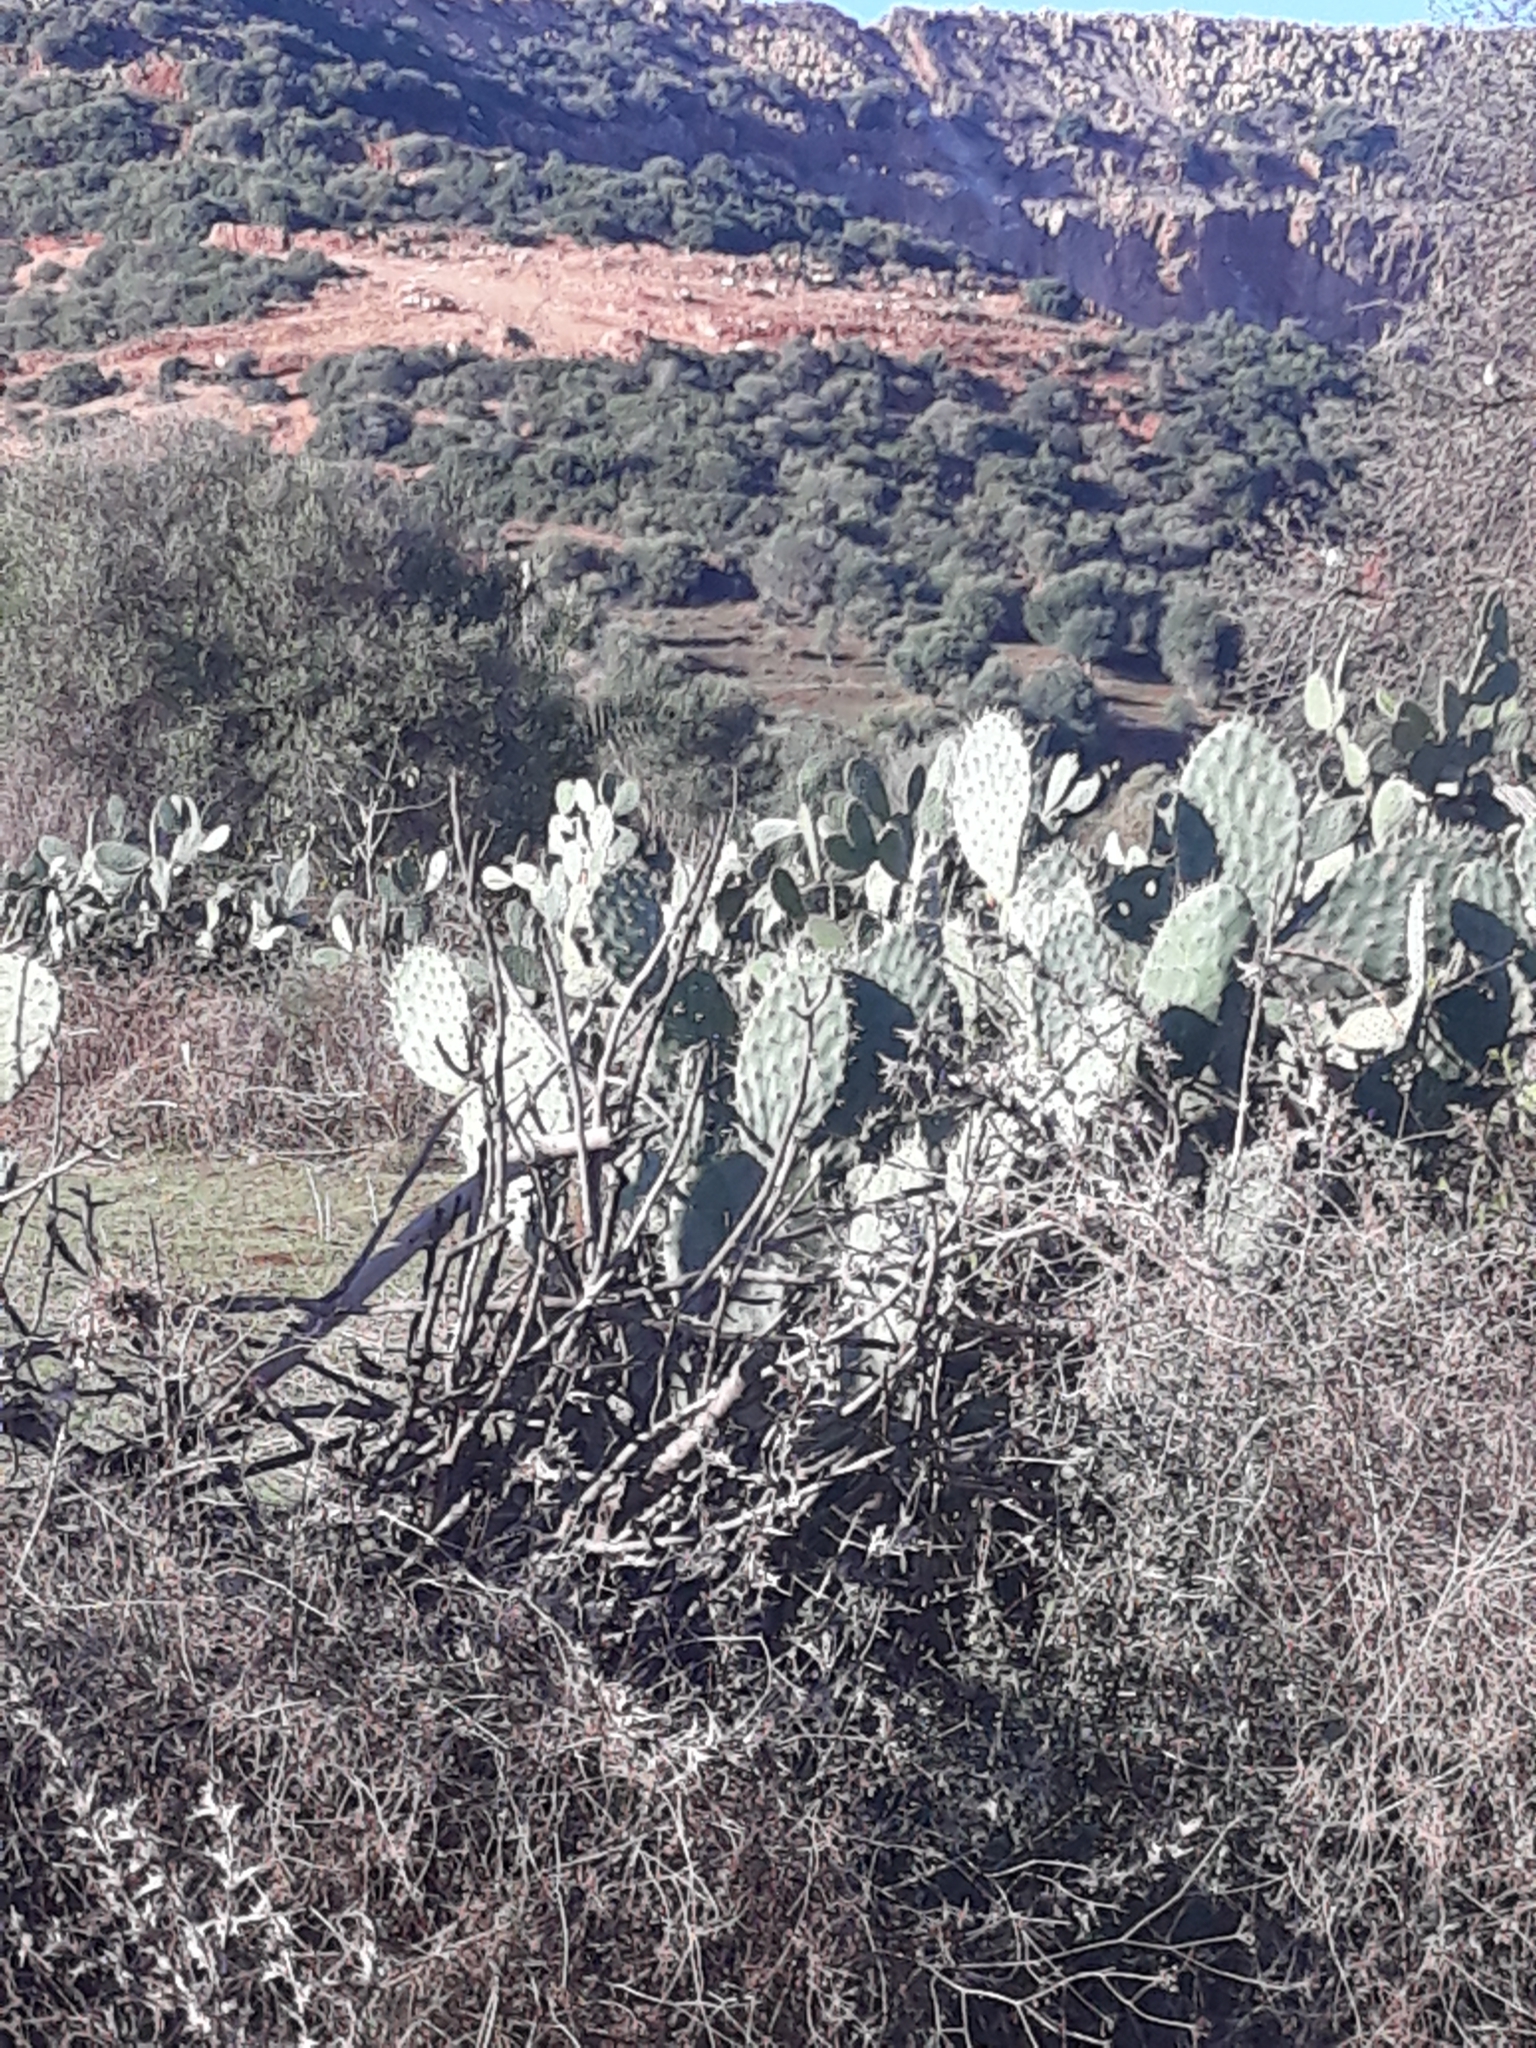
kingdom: Plantae
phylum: Tracheophyta
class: Magnoliopsida
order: Caryophyllales
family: Cactaceae
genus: Opuntia
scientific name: Opuntia ficus-indica
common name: Barbary fig
